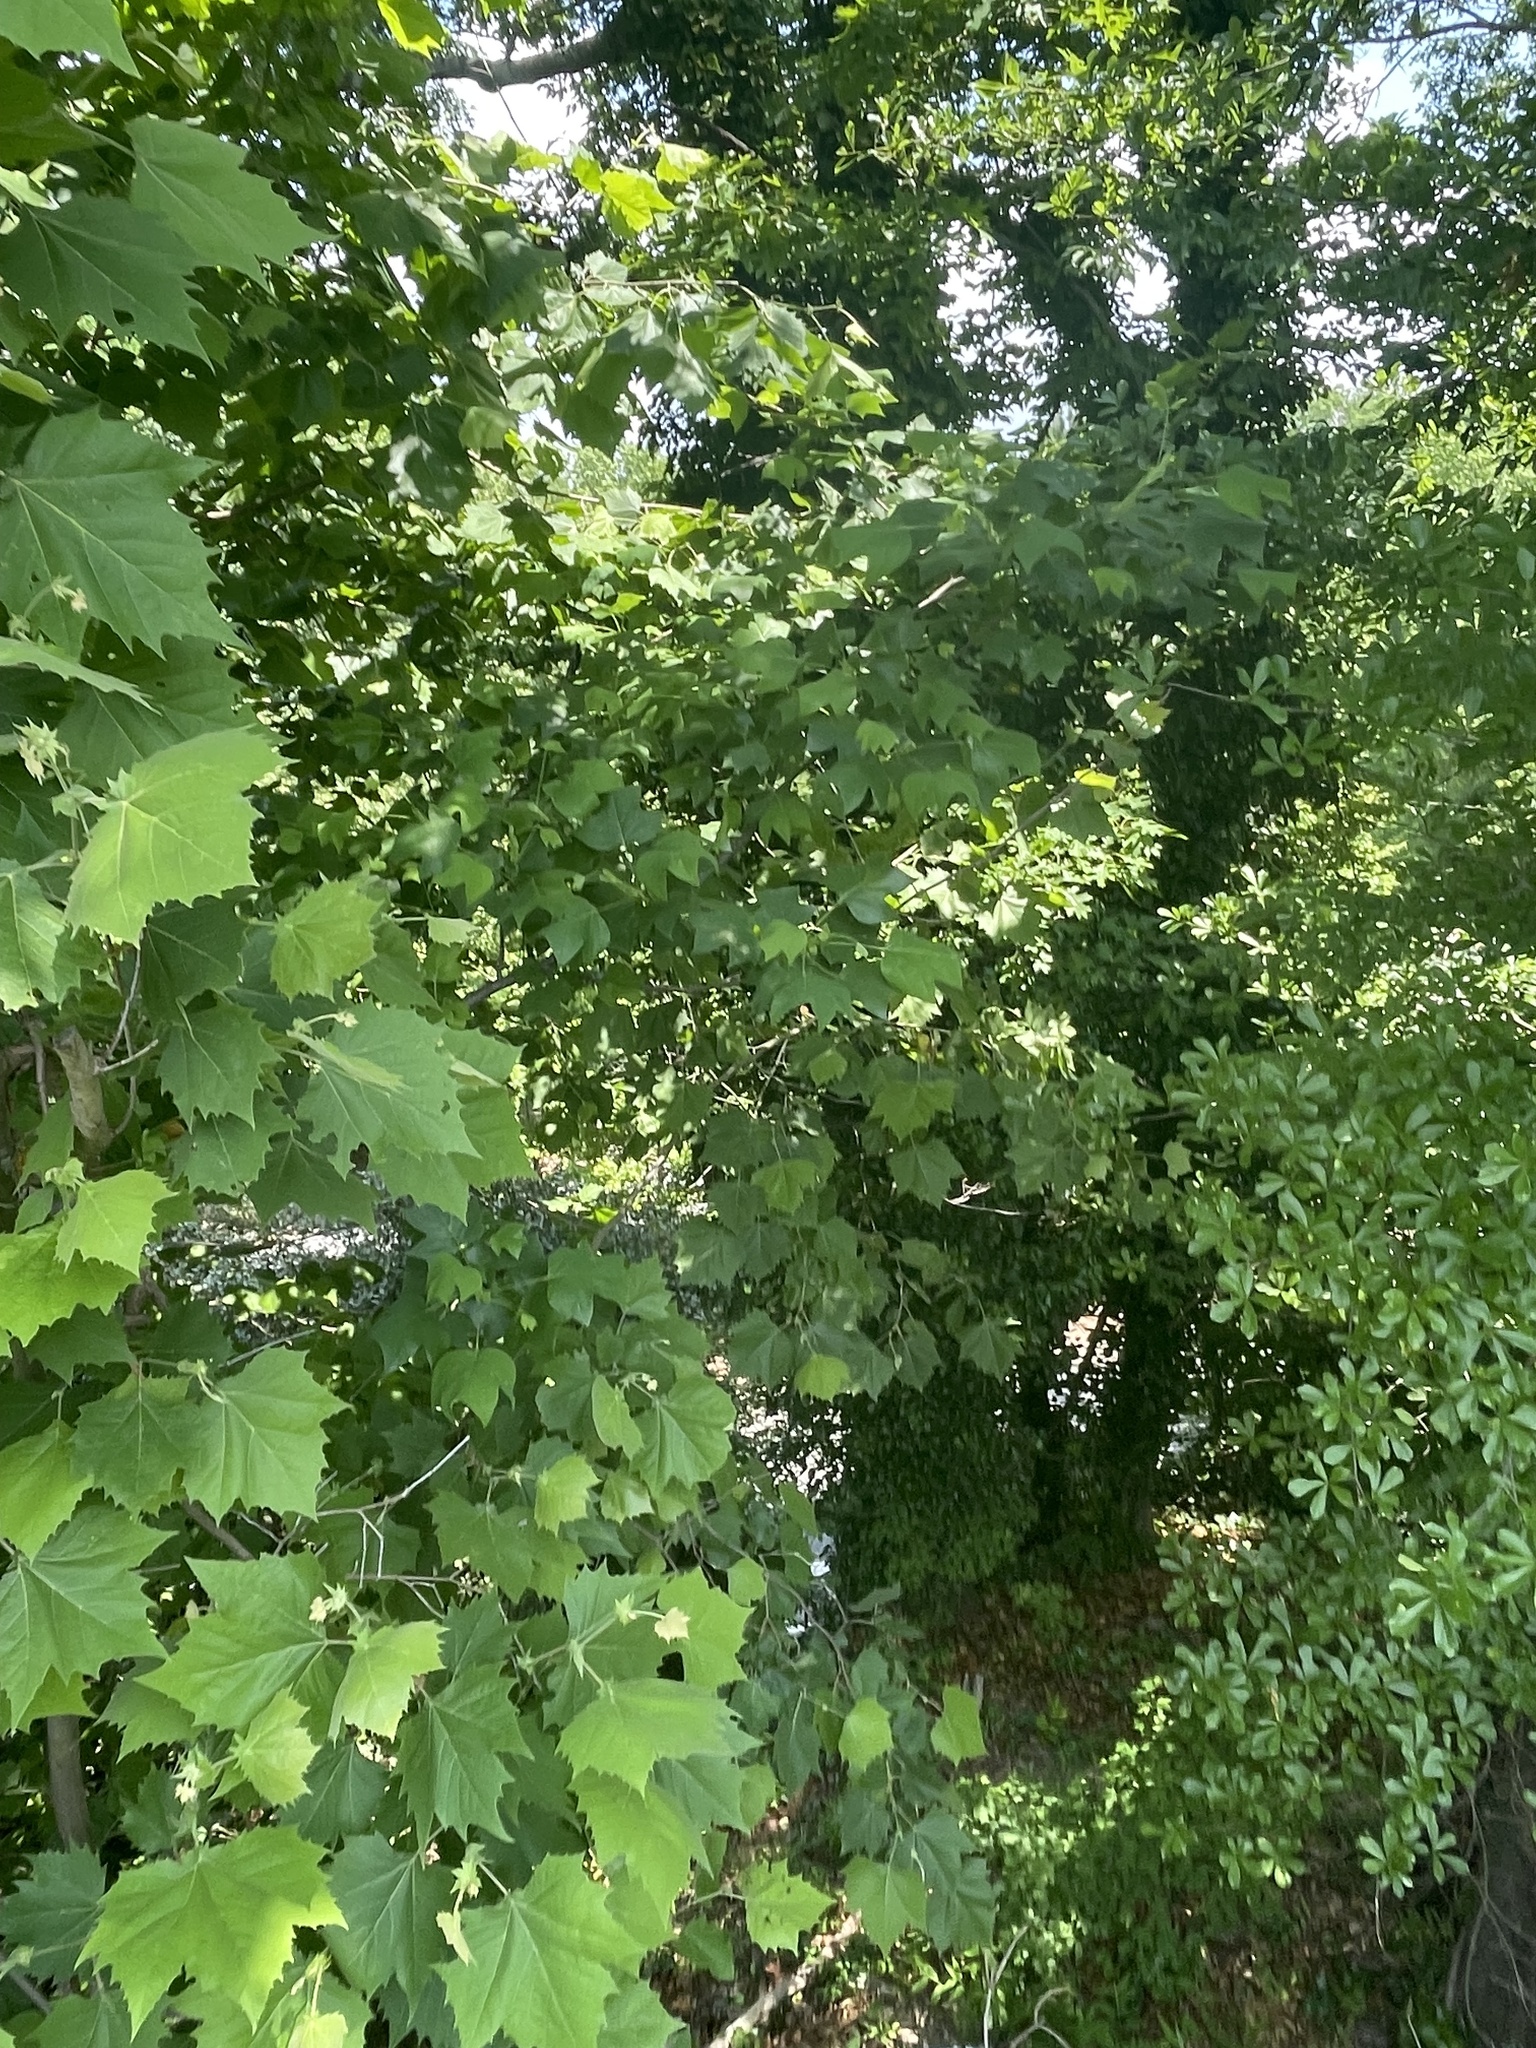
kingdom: Plantae
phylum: Tracheophyta
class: Magnoliopsida
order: Proteales
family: Platanaceae
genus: Platanus
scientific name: Platanus occidentalis
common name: American sycamore
